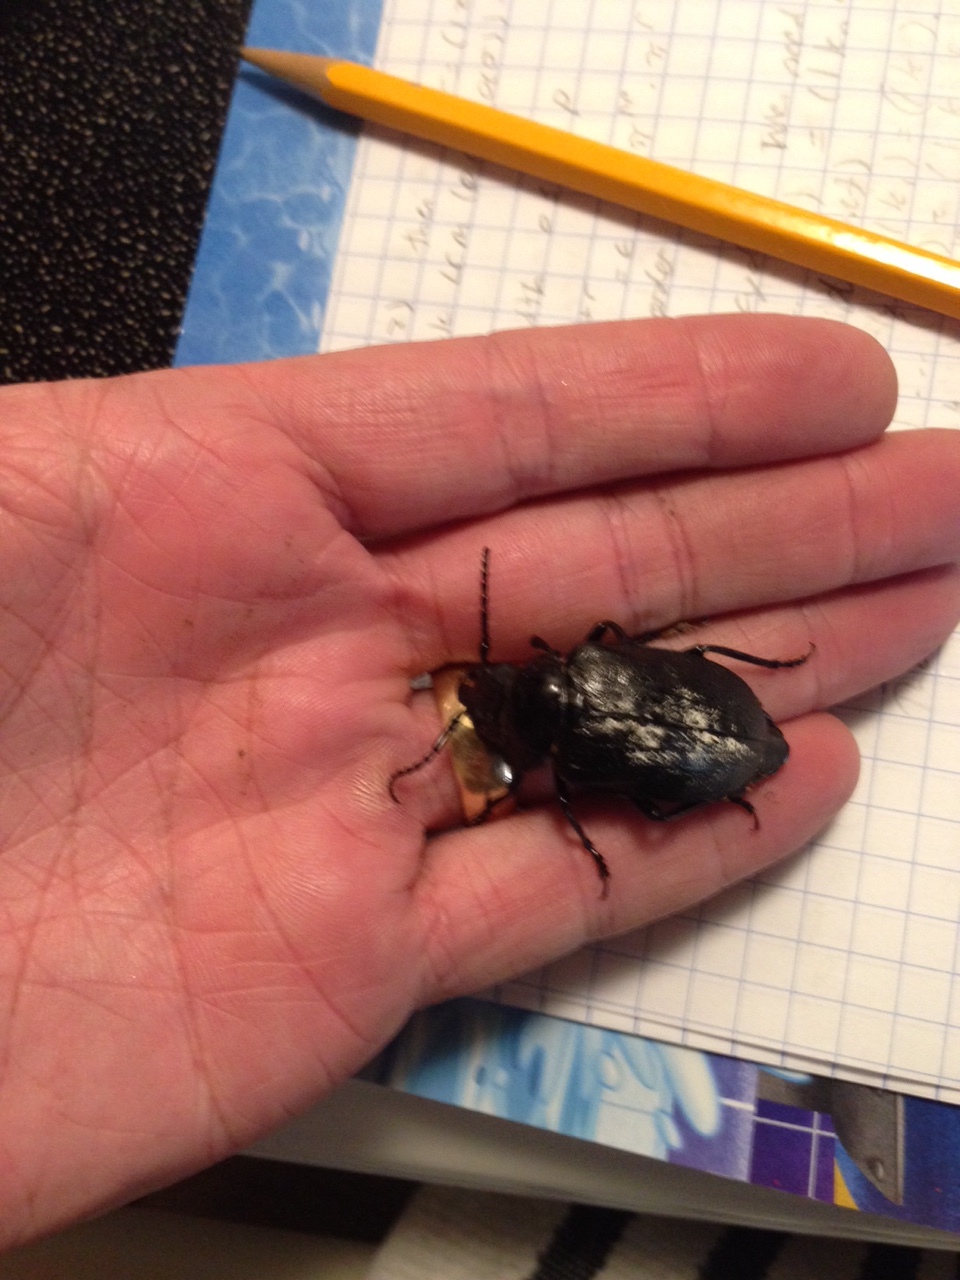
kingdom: Animalia
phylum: Arthropoda
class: Insecta
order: Coleoptera
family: Cerambycidae
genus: Prionus
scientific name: Prionus laticollis
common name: Broad necked prionus
